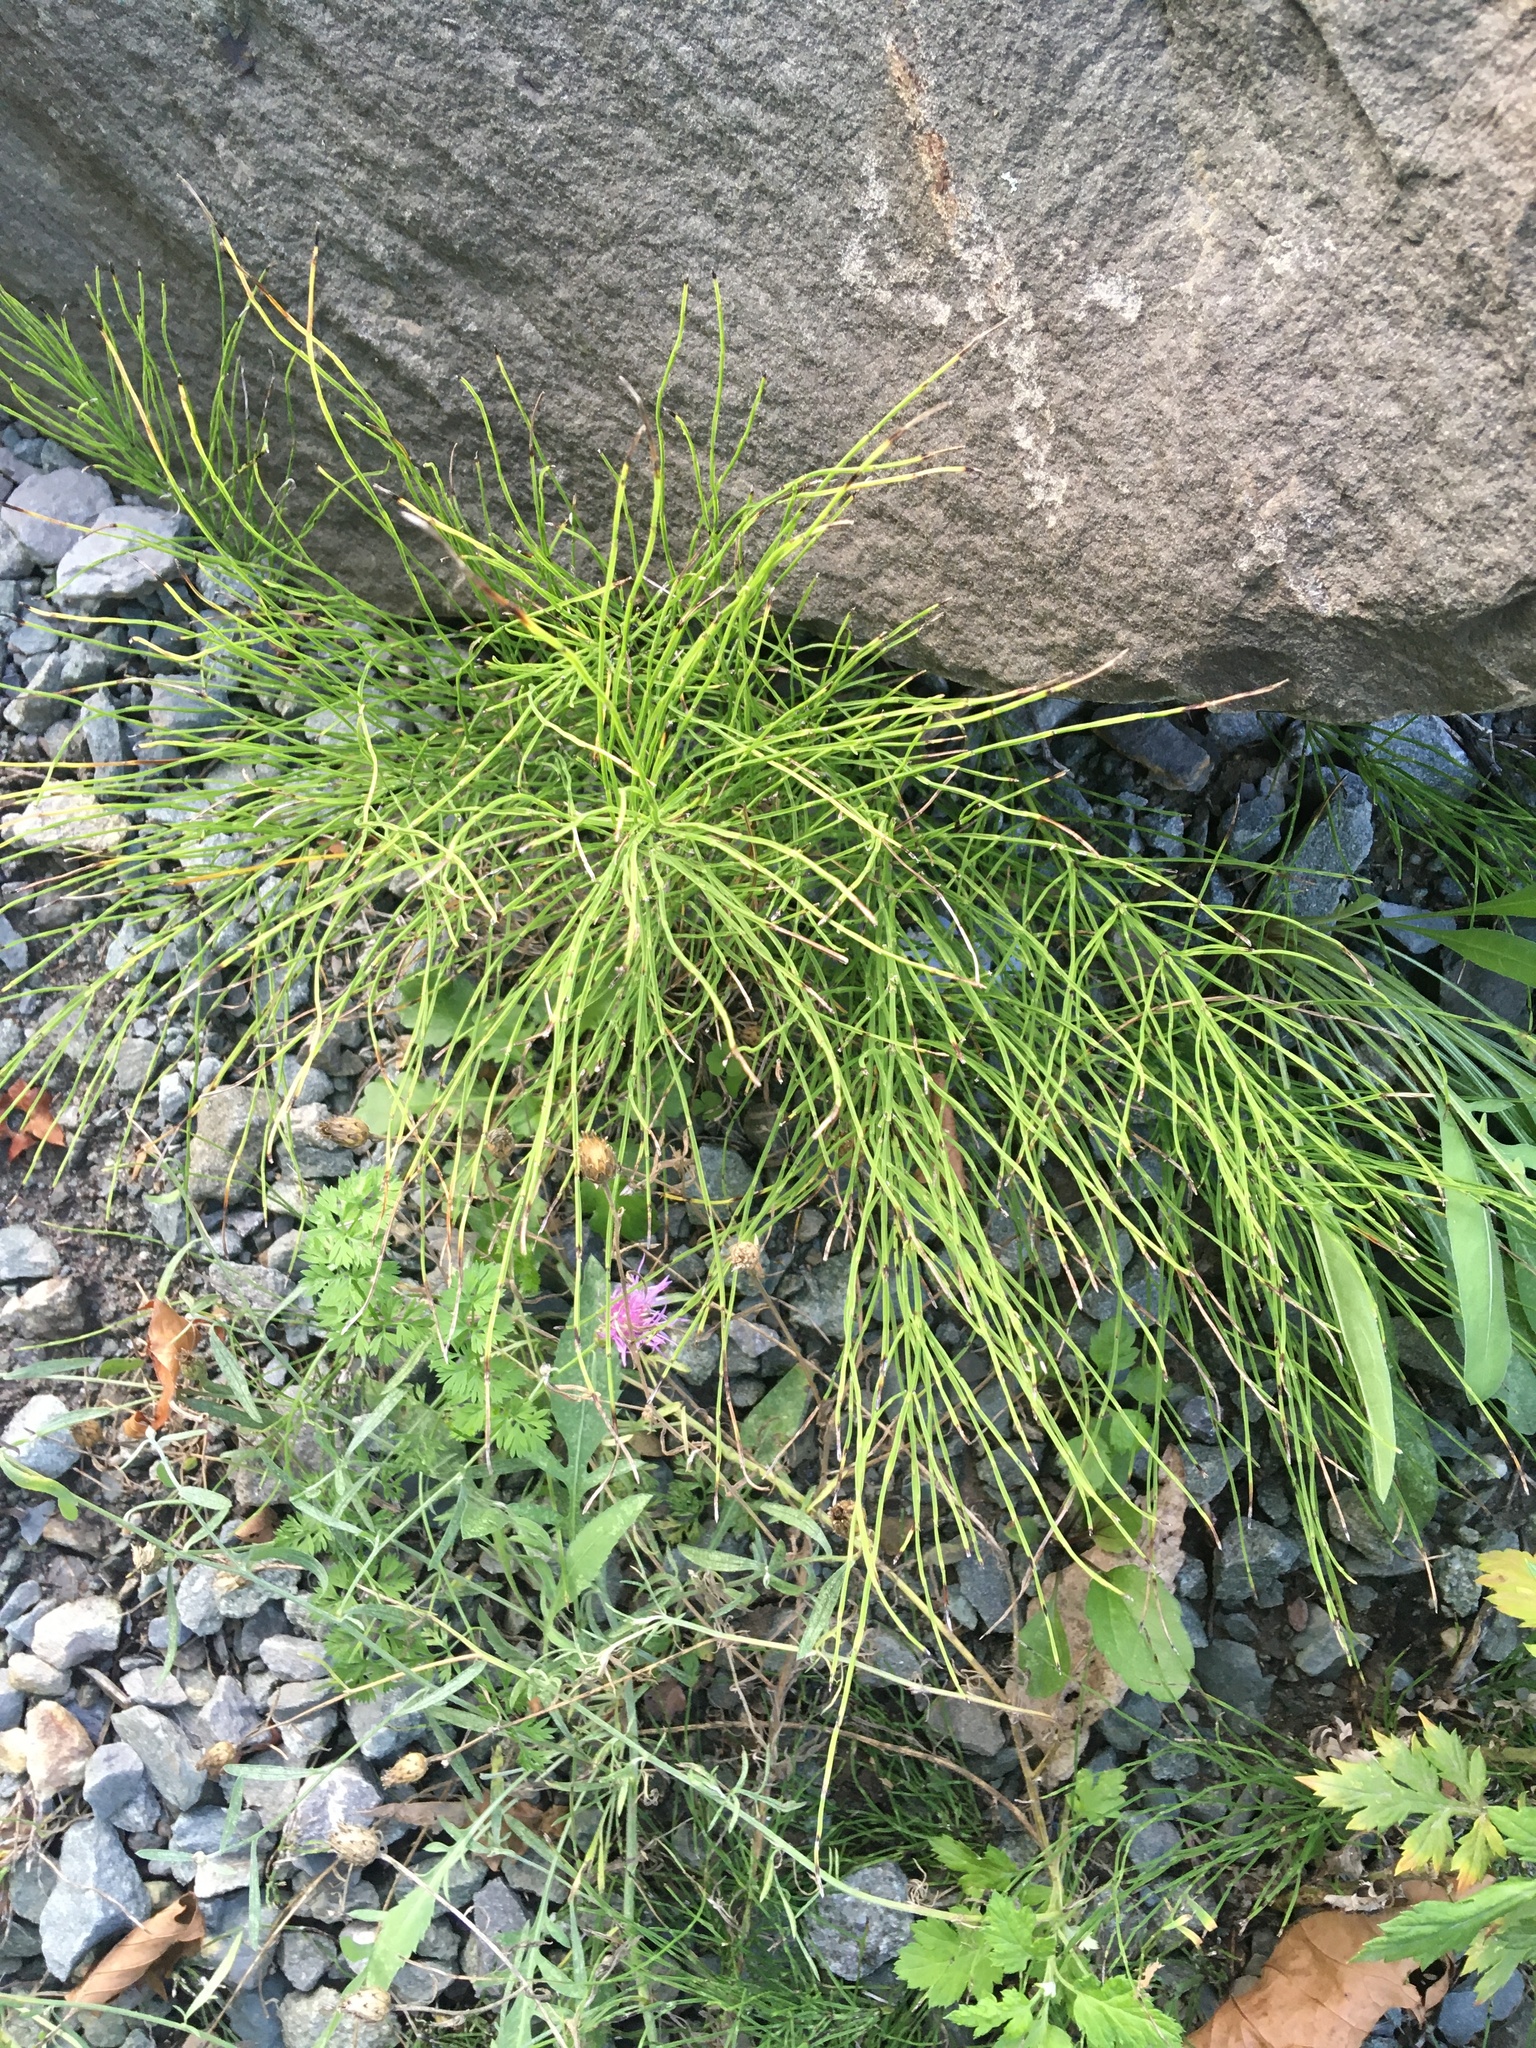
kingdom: Plantae
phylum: Tracheophyta
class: Polypodiopsida
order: Equisetales
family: Equisetaceae
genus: Equisetum
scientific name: Equisetum arvense
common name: Field horsetail
